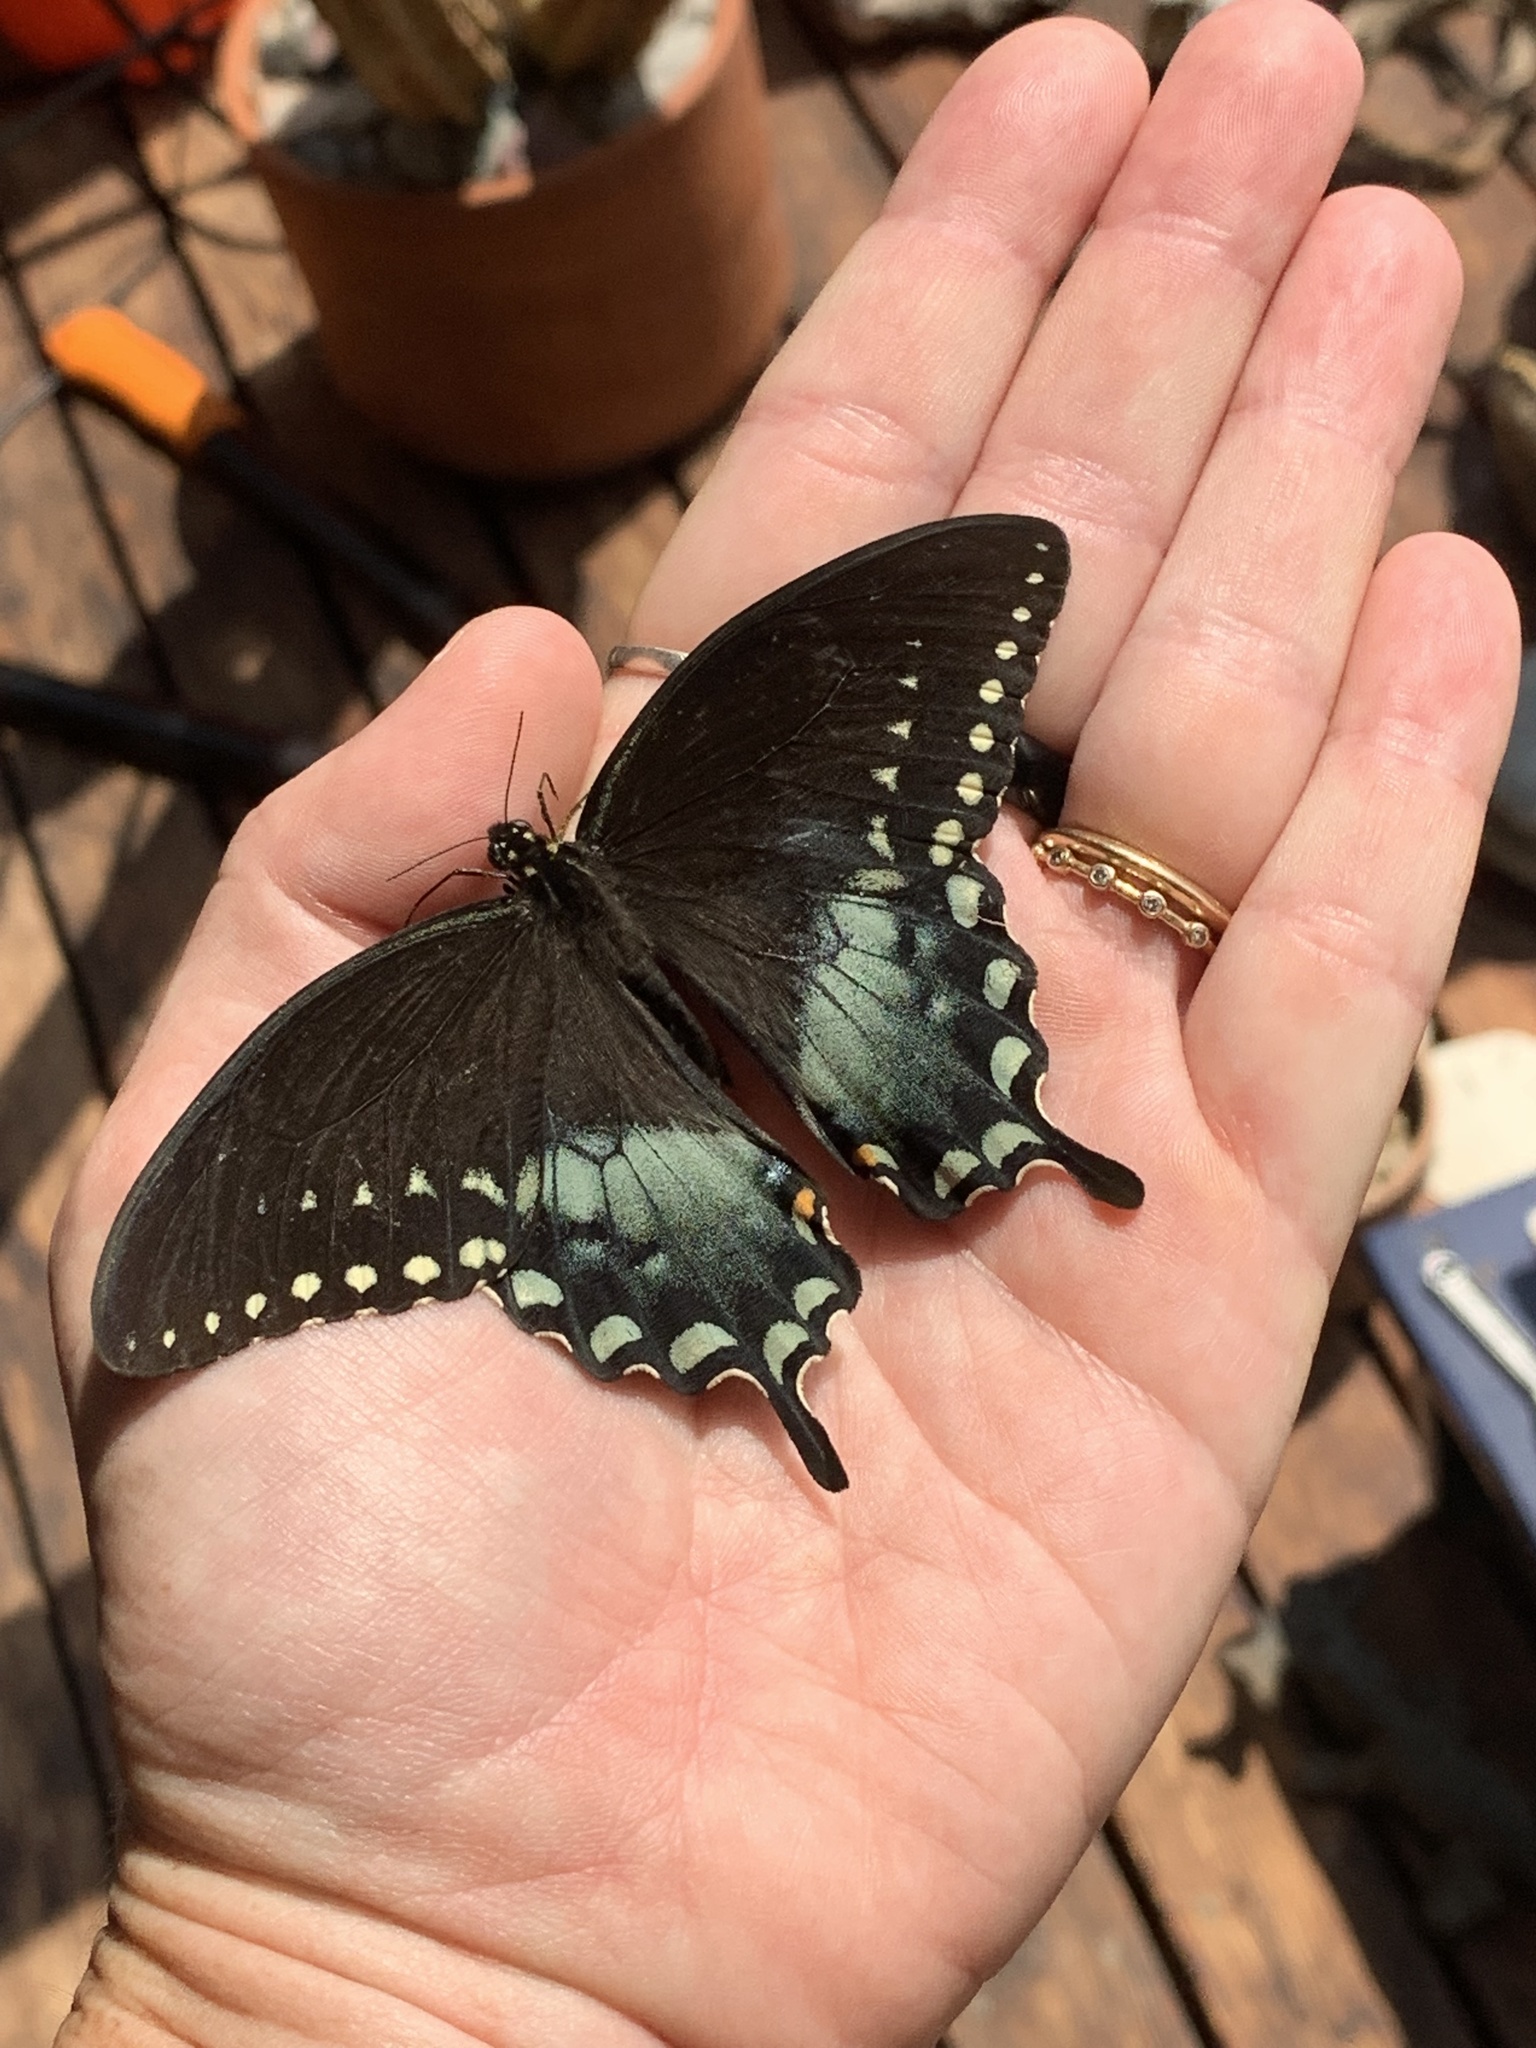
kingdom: Animalia
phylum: Arthropoda
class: Insecta
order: Lepidoptera
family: Papilionidae
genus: Papilio
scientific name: Papilio troilus
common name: Spicebush swallowtail
